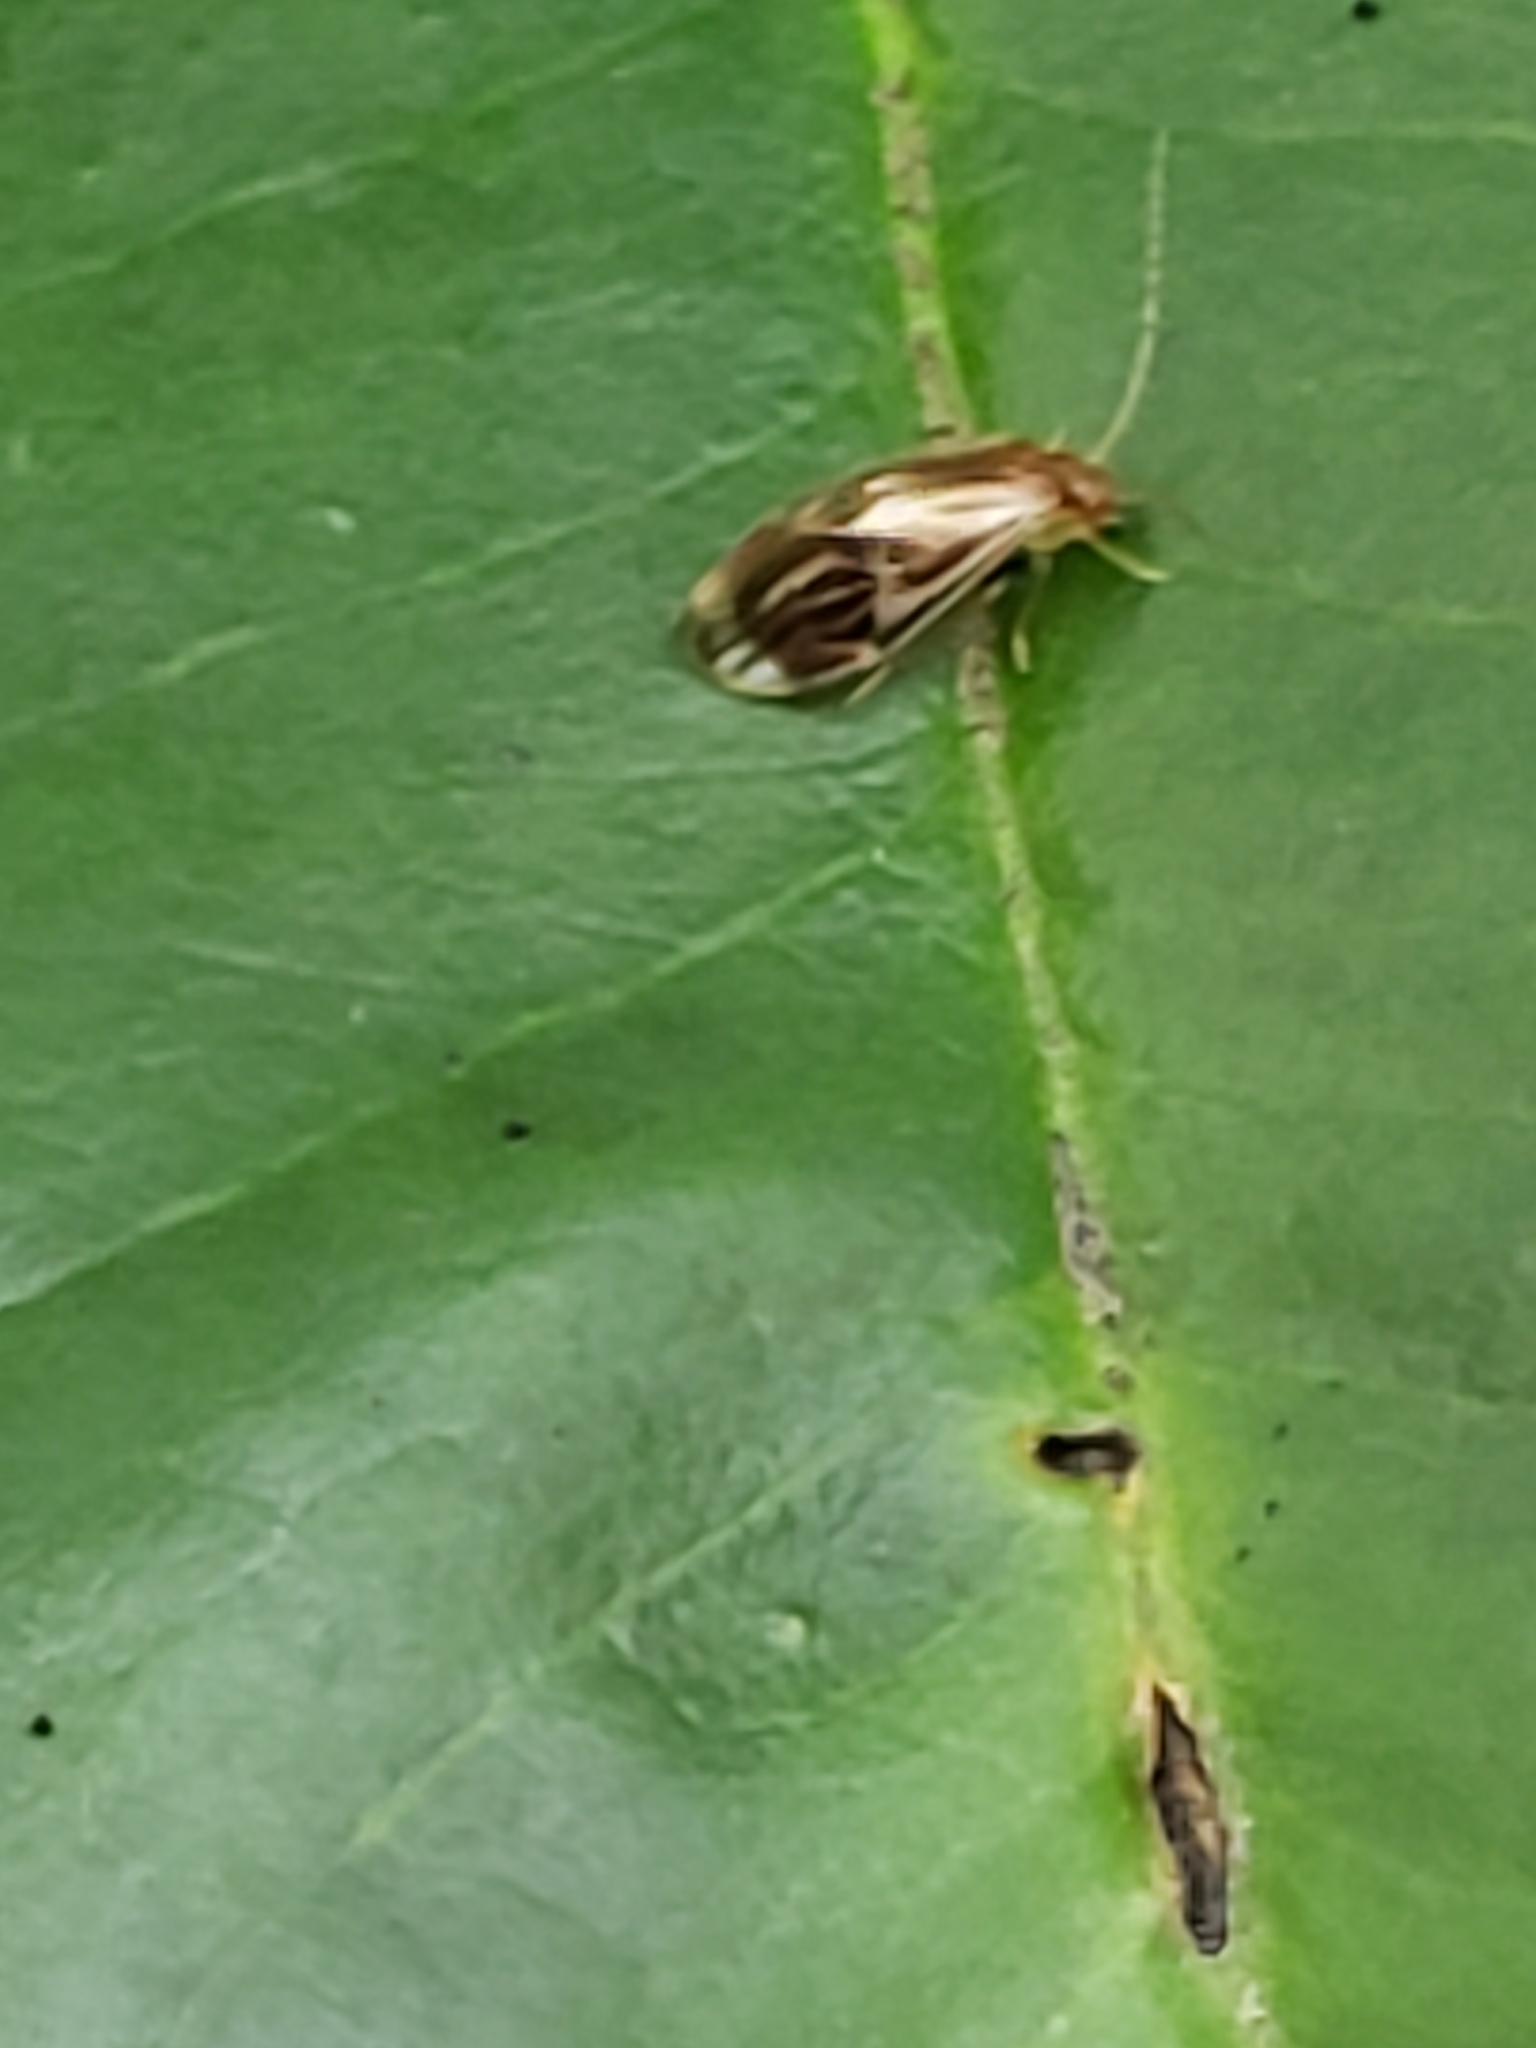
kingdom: Animalia
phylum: Arthropoda
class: Insecta
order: Psocodea
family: Amphipsocidae
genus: Polypsocus
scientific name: Polypsocus corruptus
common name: Corrupt barklouse
